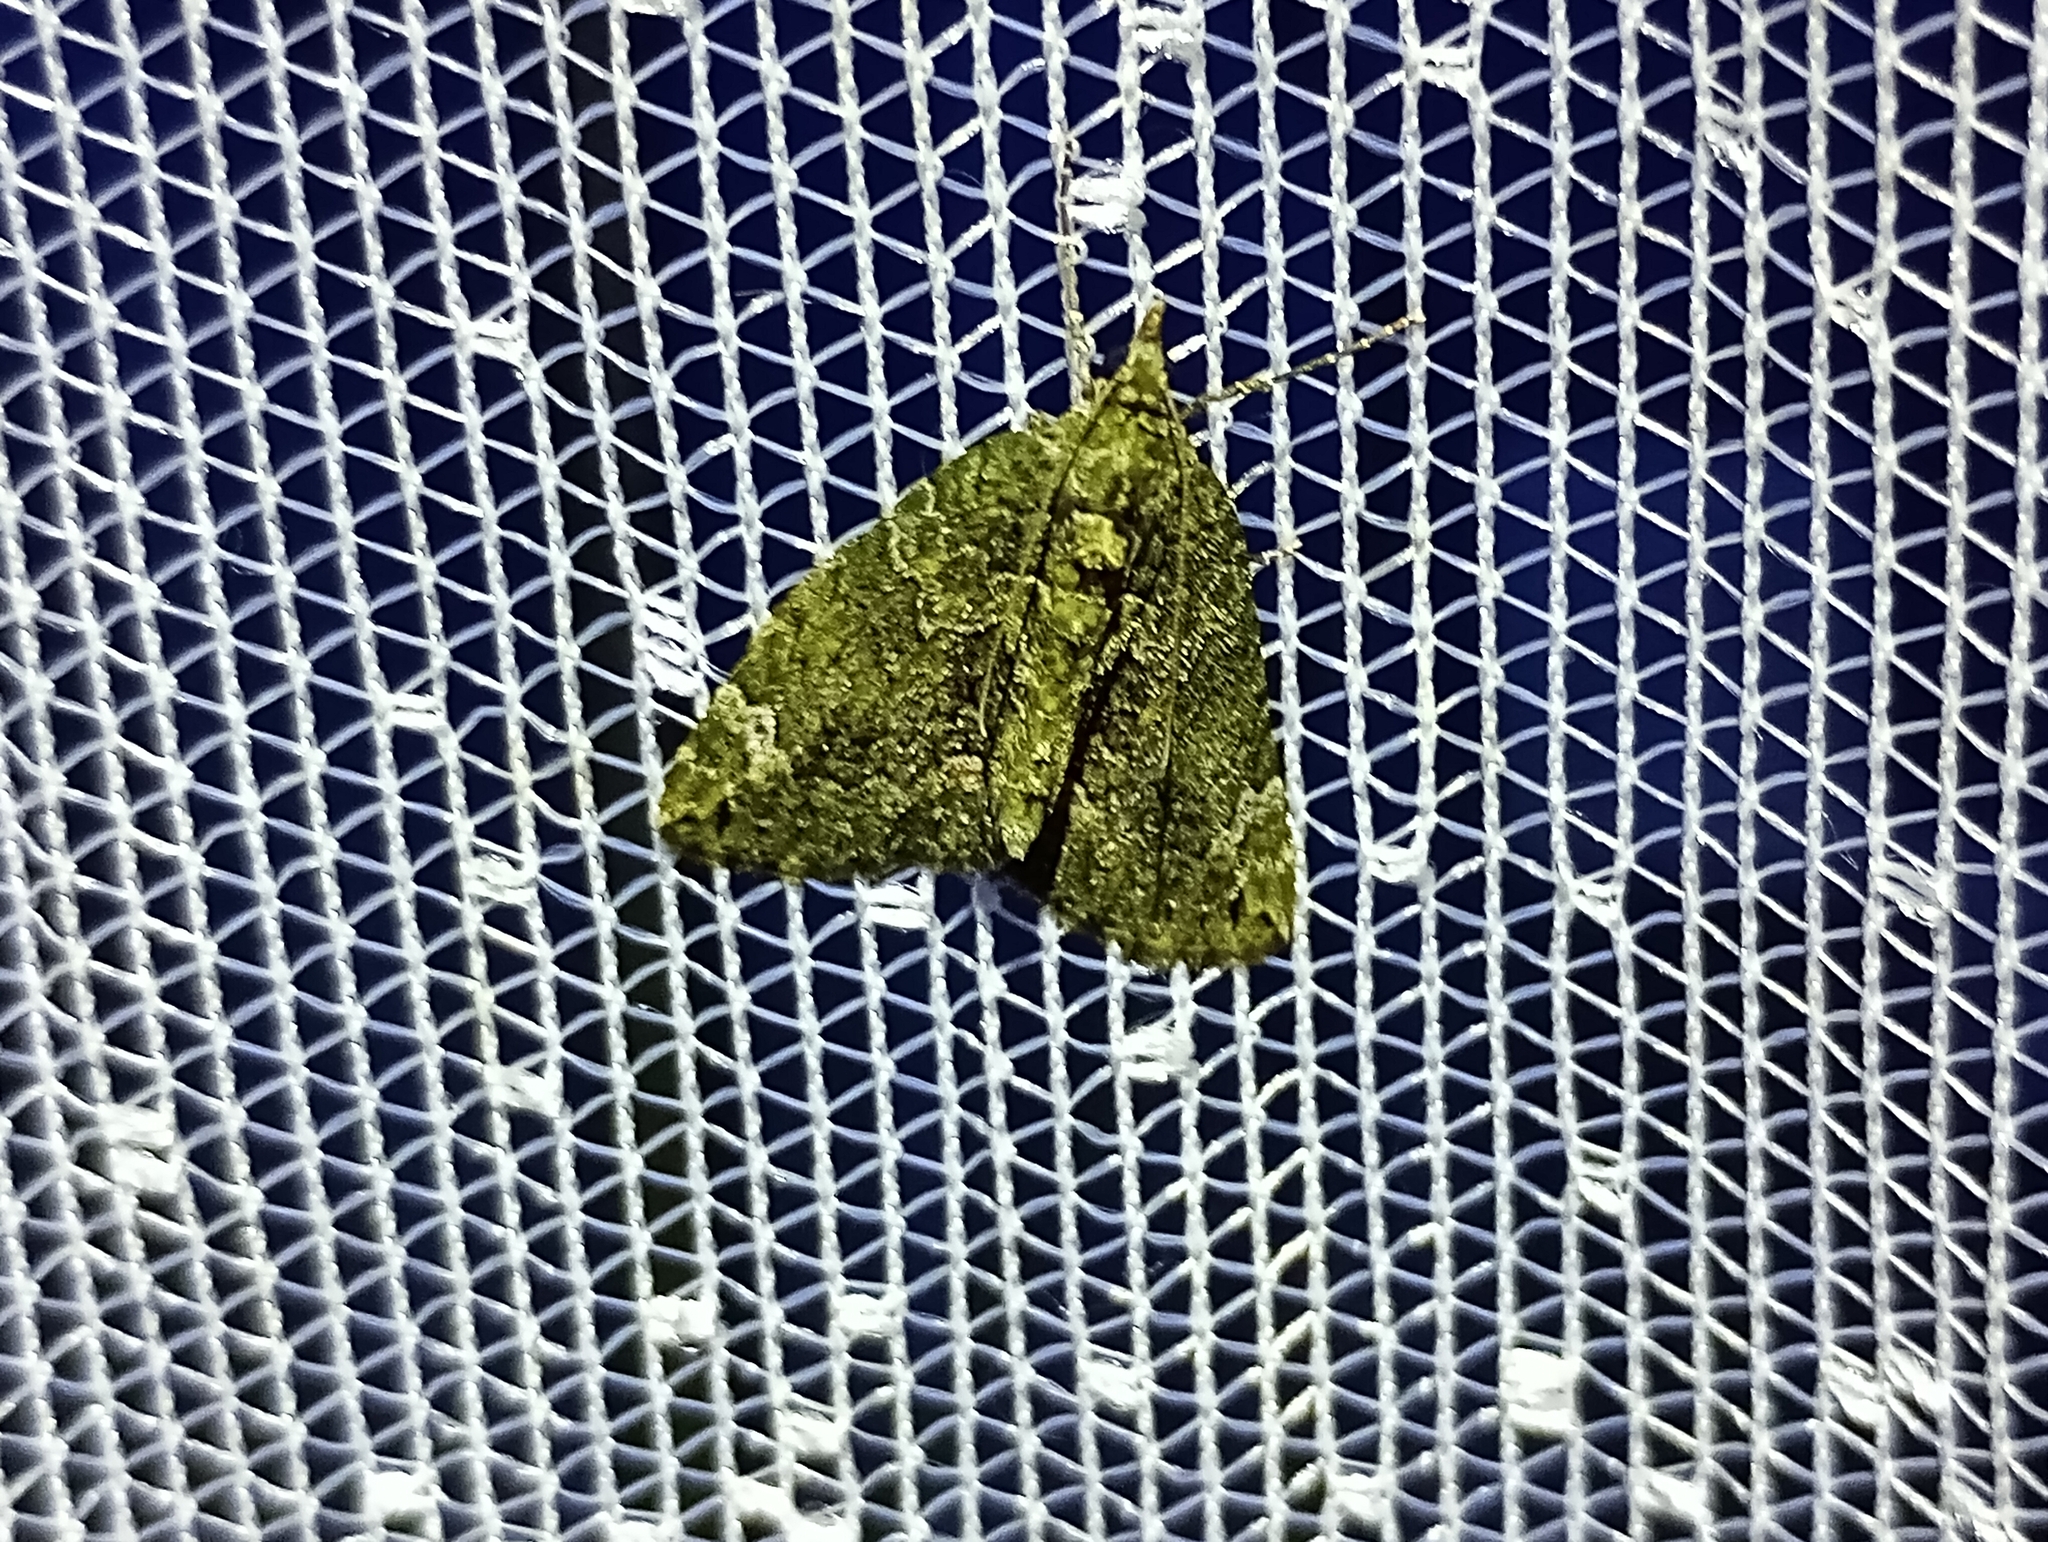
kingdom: Animalia
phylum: Arthropoda
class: Insecta
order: Lepidoptera
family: Geometridae
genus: Chloroclysta
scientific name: Chloroclysta siterata
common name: Red-green carpet
